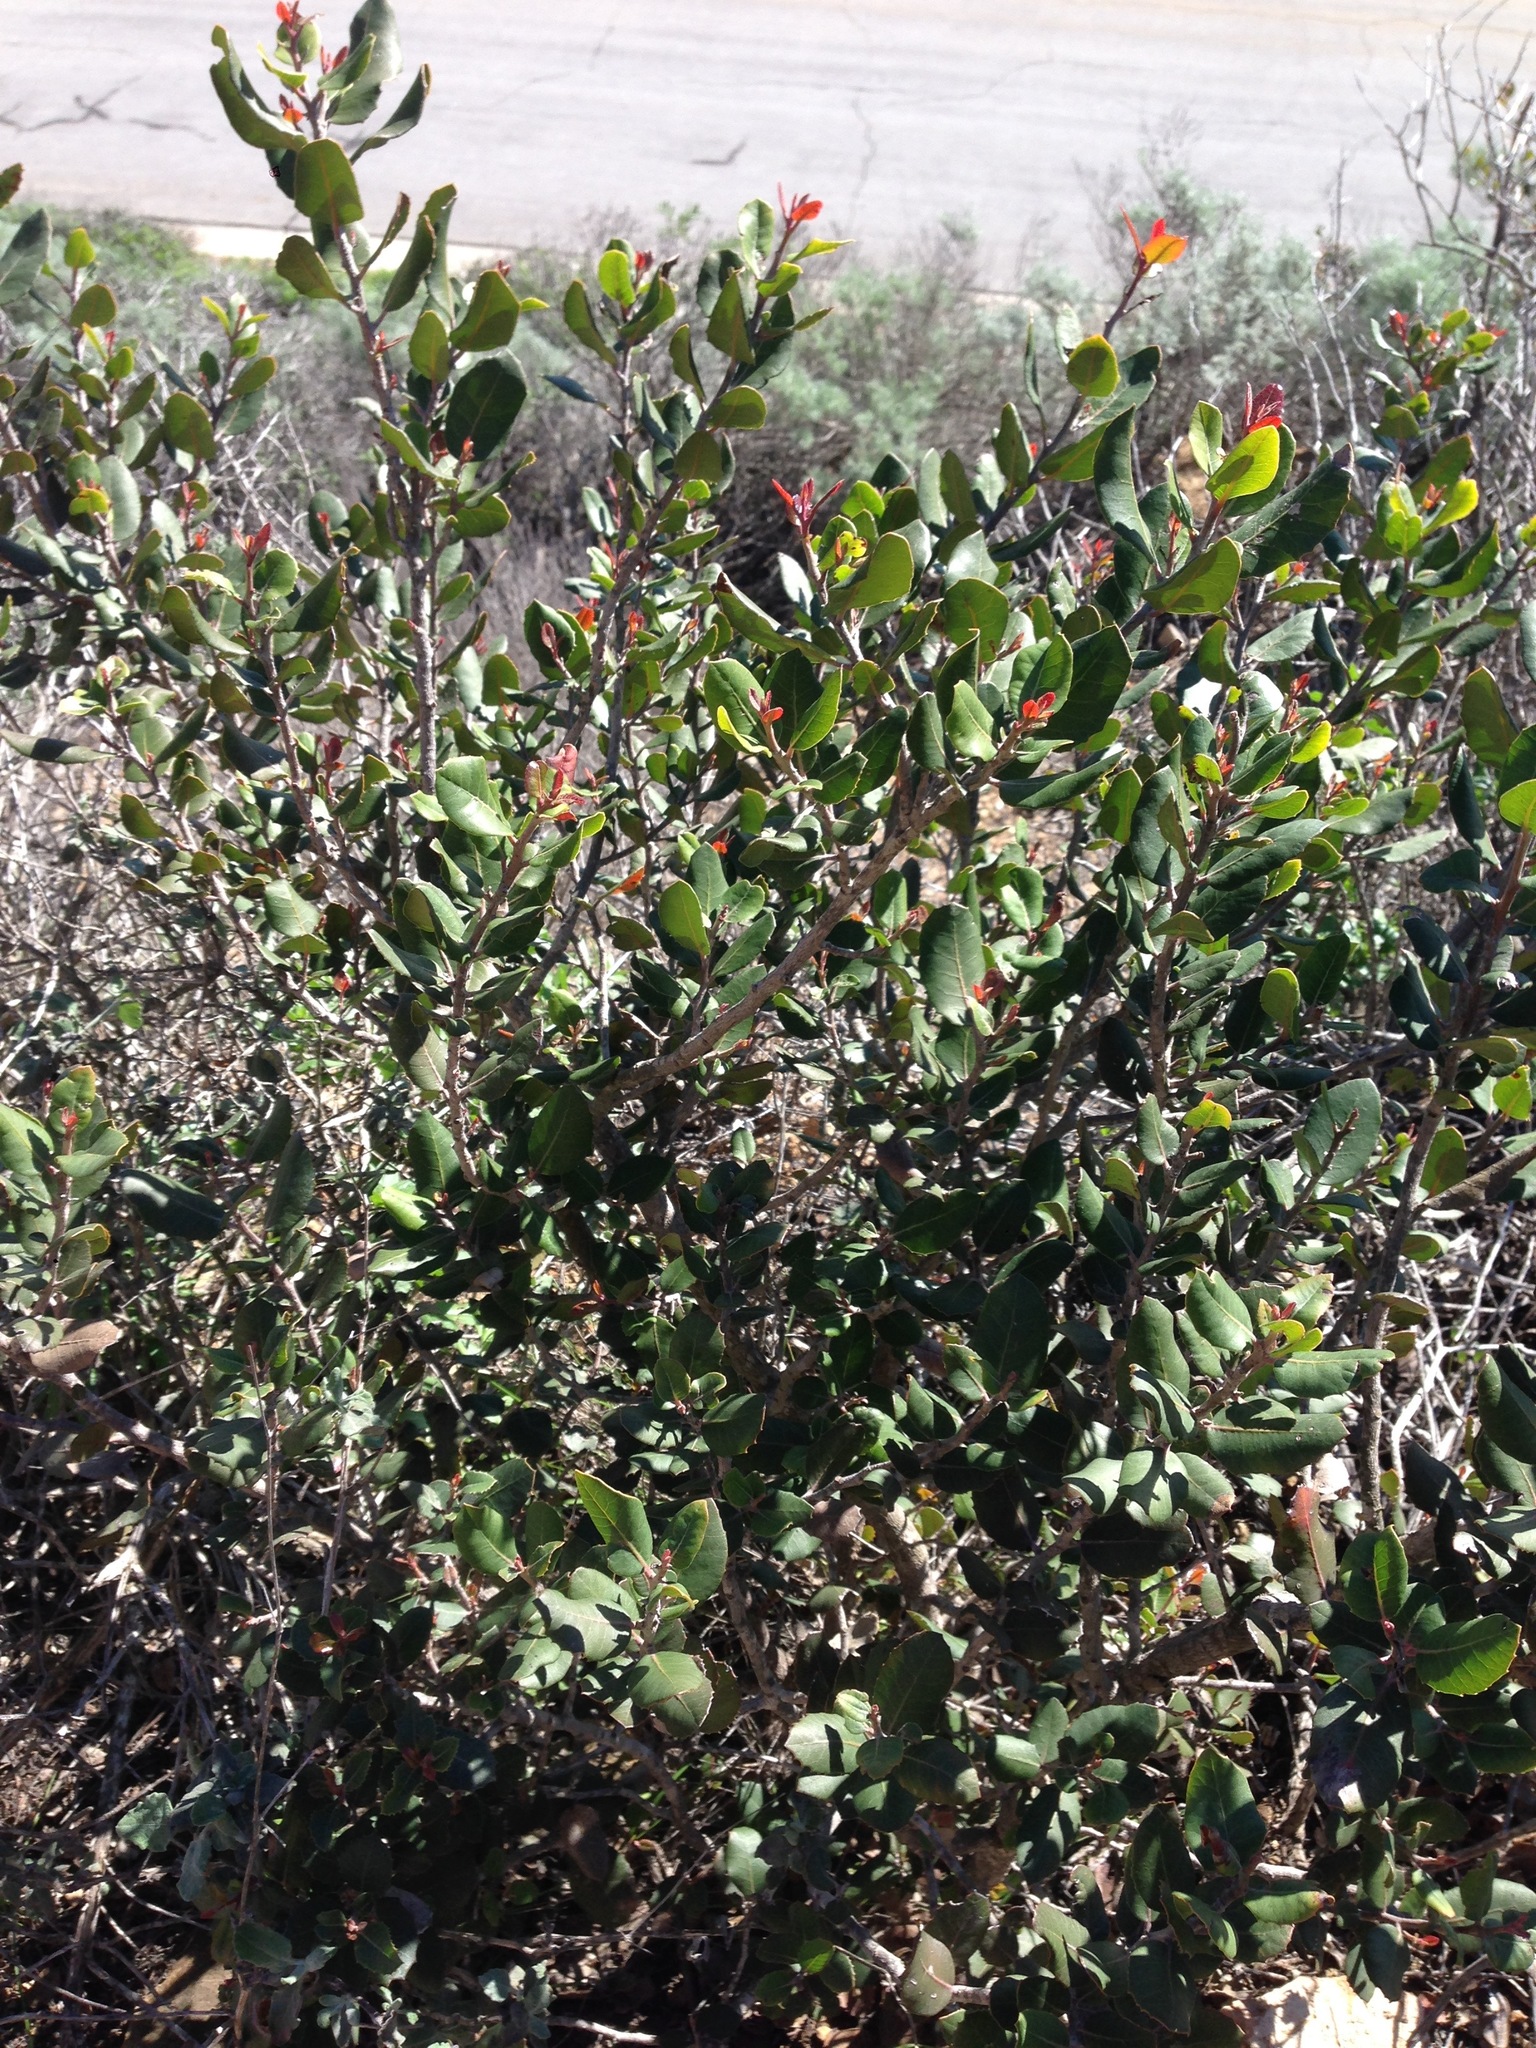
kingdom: Plantae
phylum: Tracheophyta
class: Magnoliopsida
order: Sapindales
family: Anacardiaceae
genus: Rhus
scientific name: Rhus integrifolia
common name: Lemonade sumac
